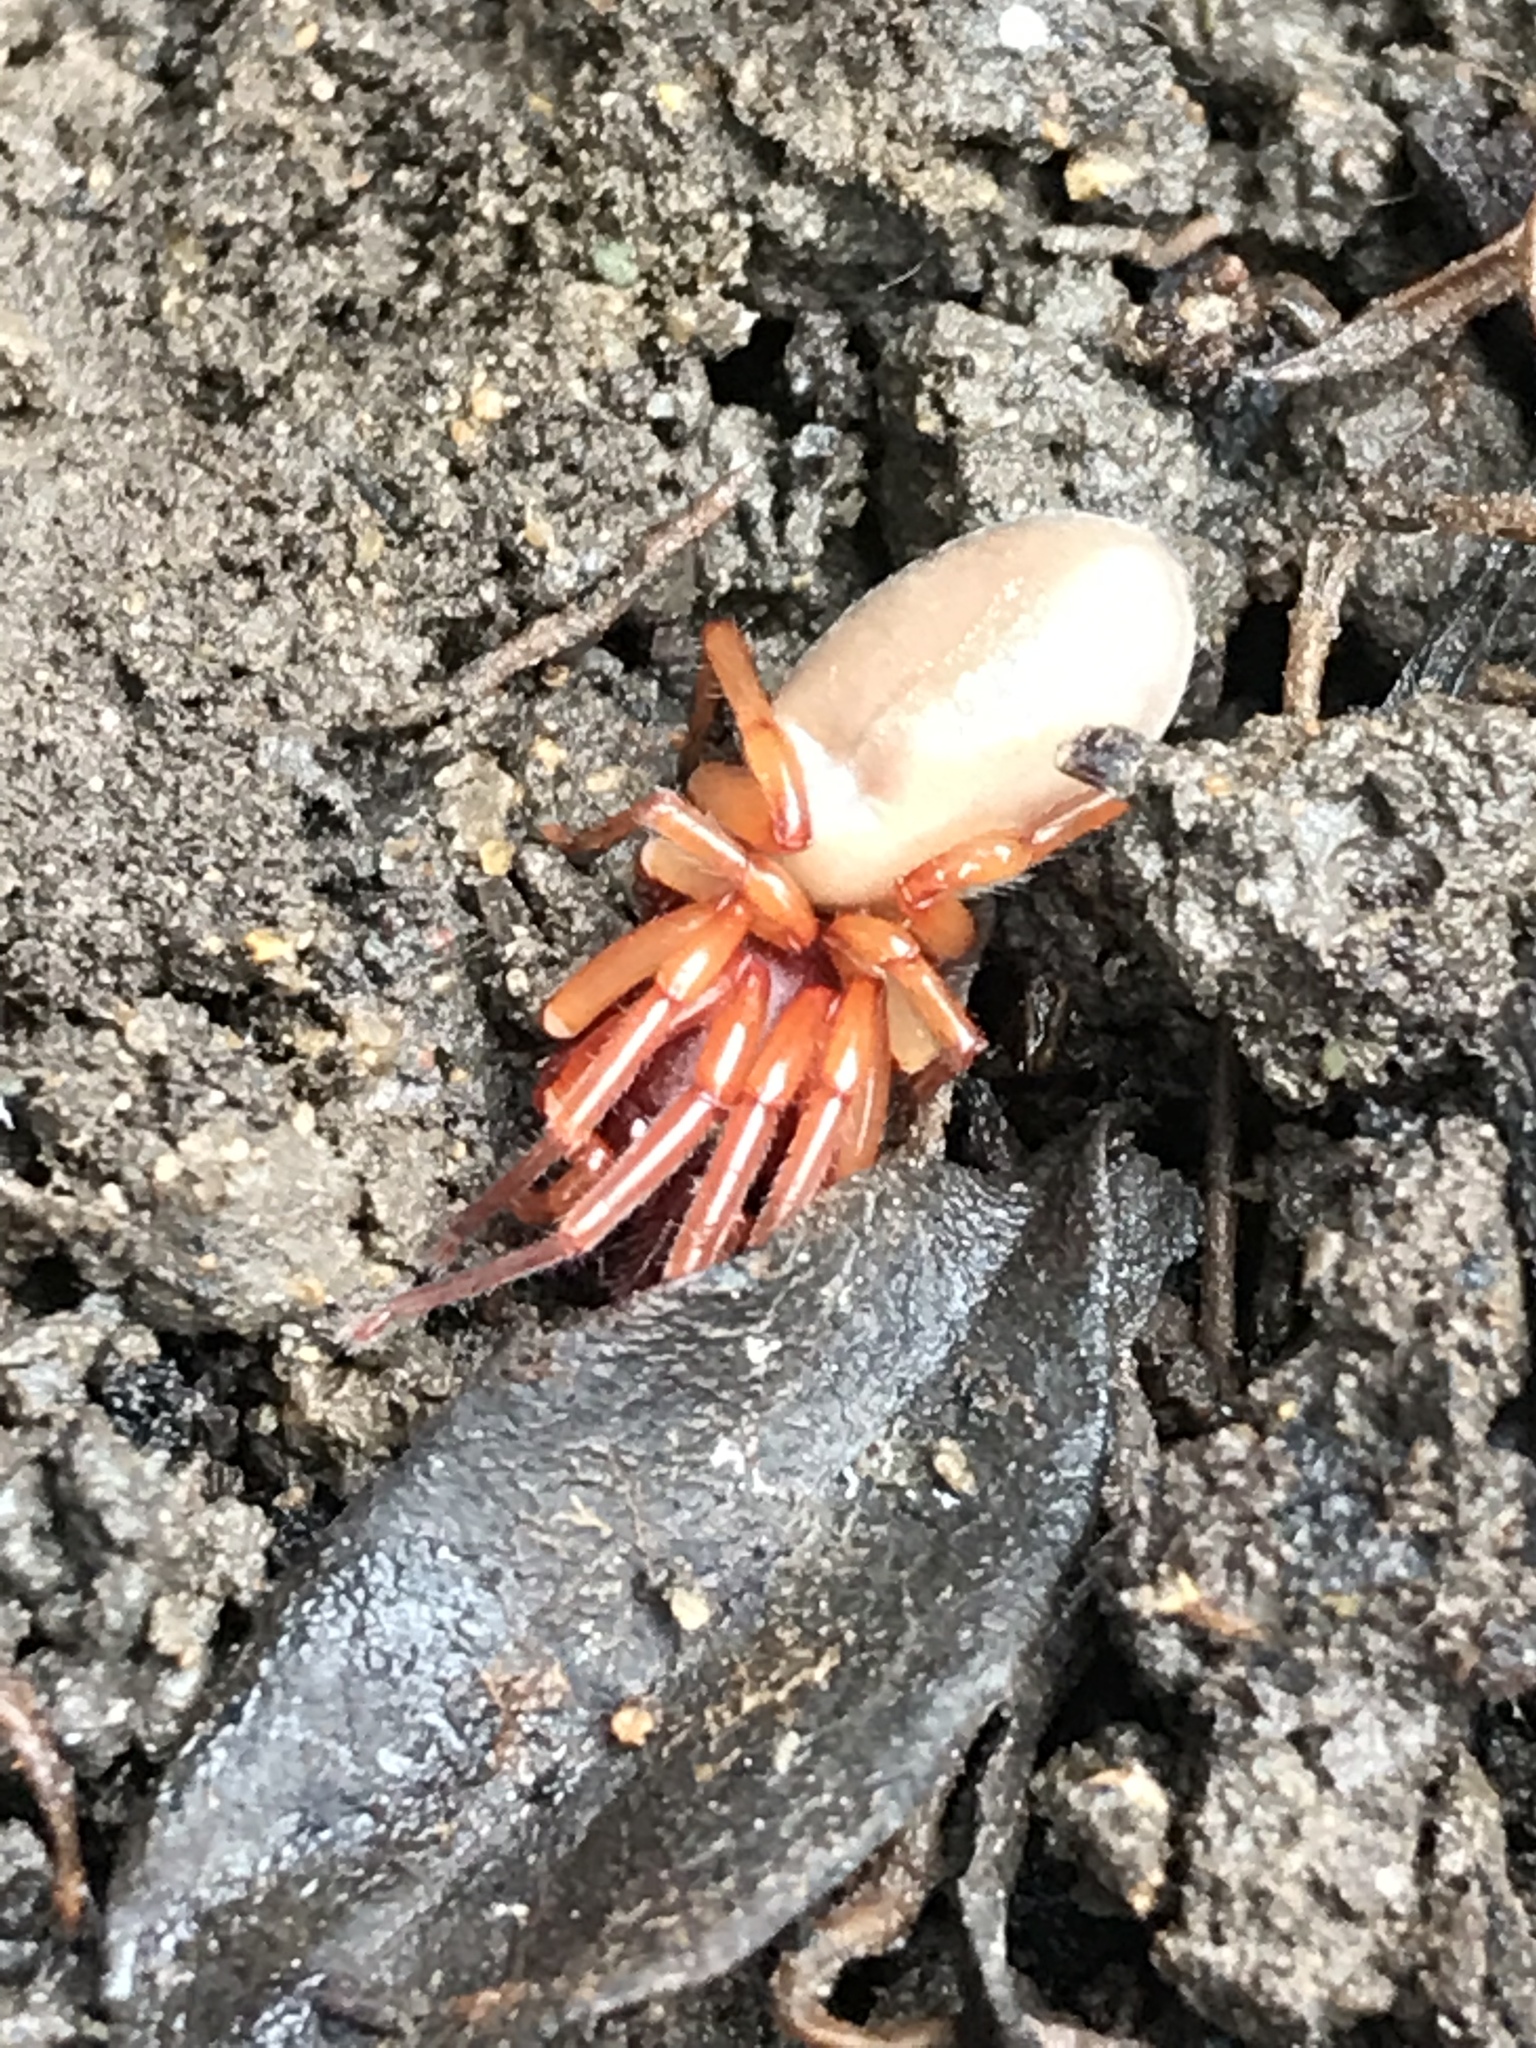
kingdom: Animalia
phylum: Arthropoda
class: Arachnida
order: Araneae
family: Dysderidae
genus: Dysdera
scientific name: Dysdera crocata
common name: Woodlouse spider
